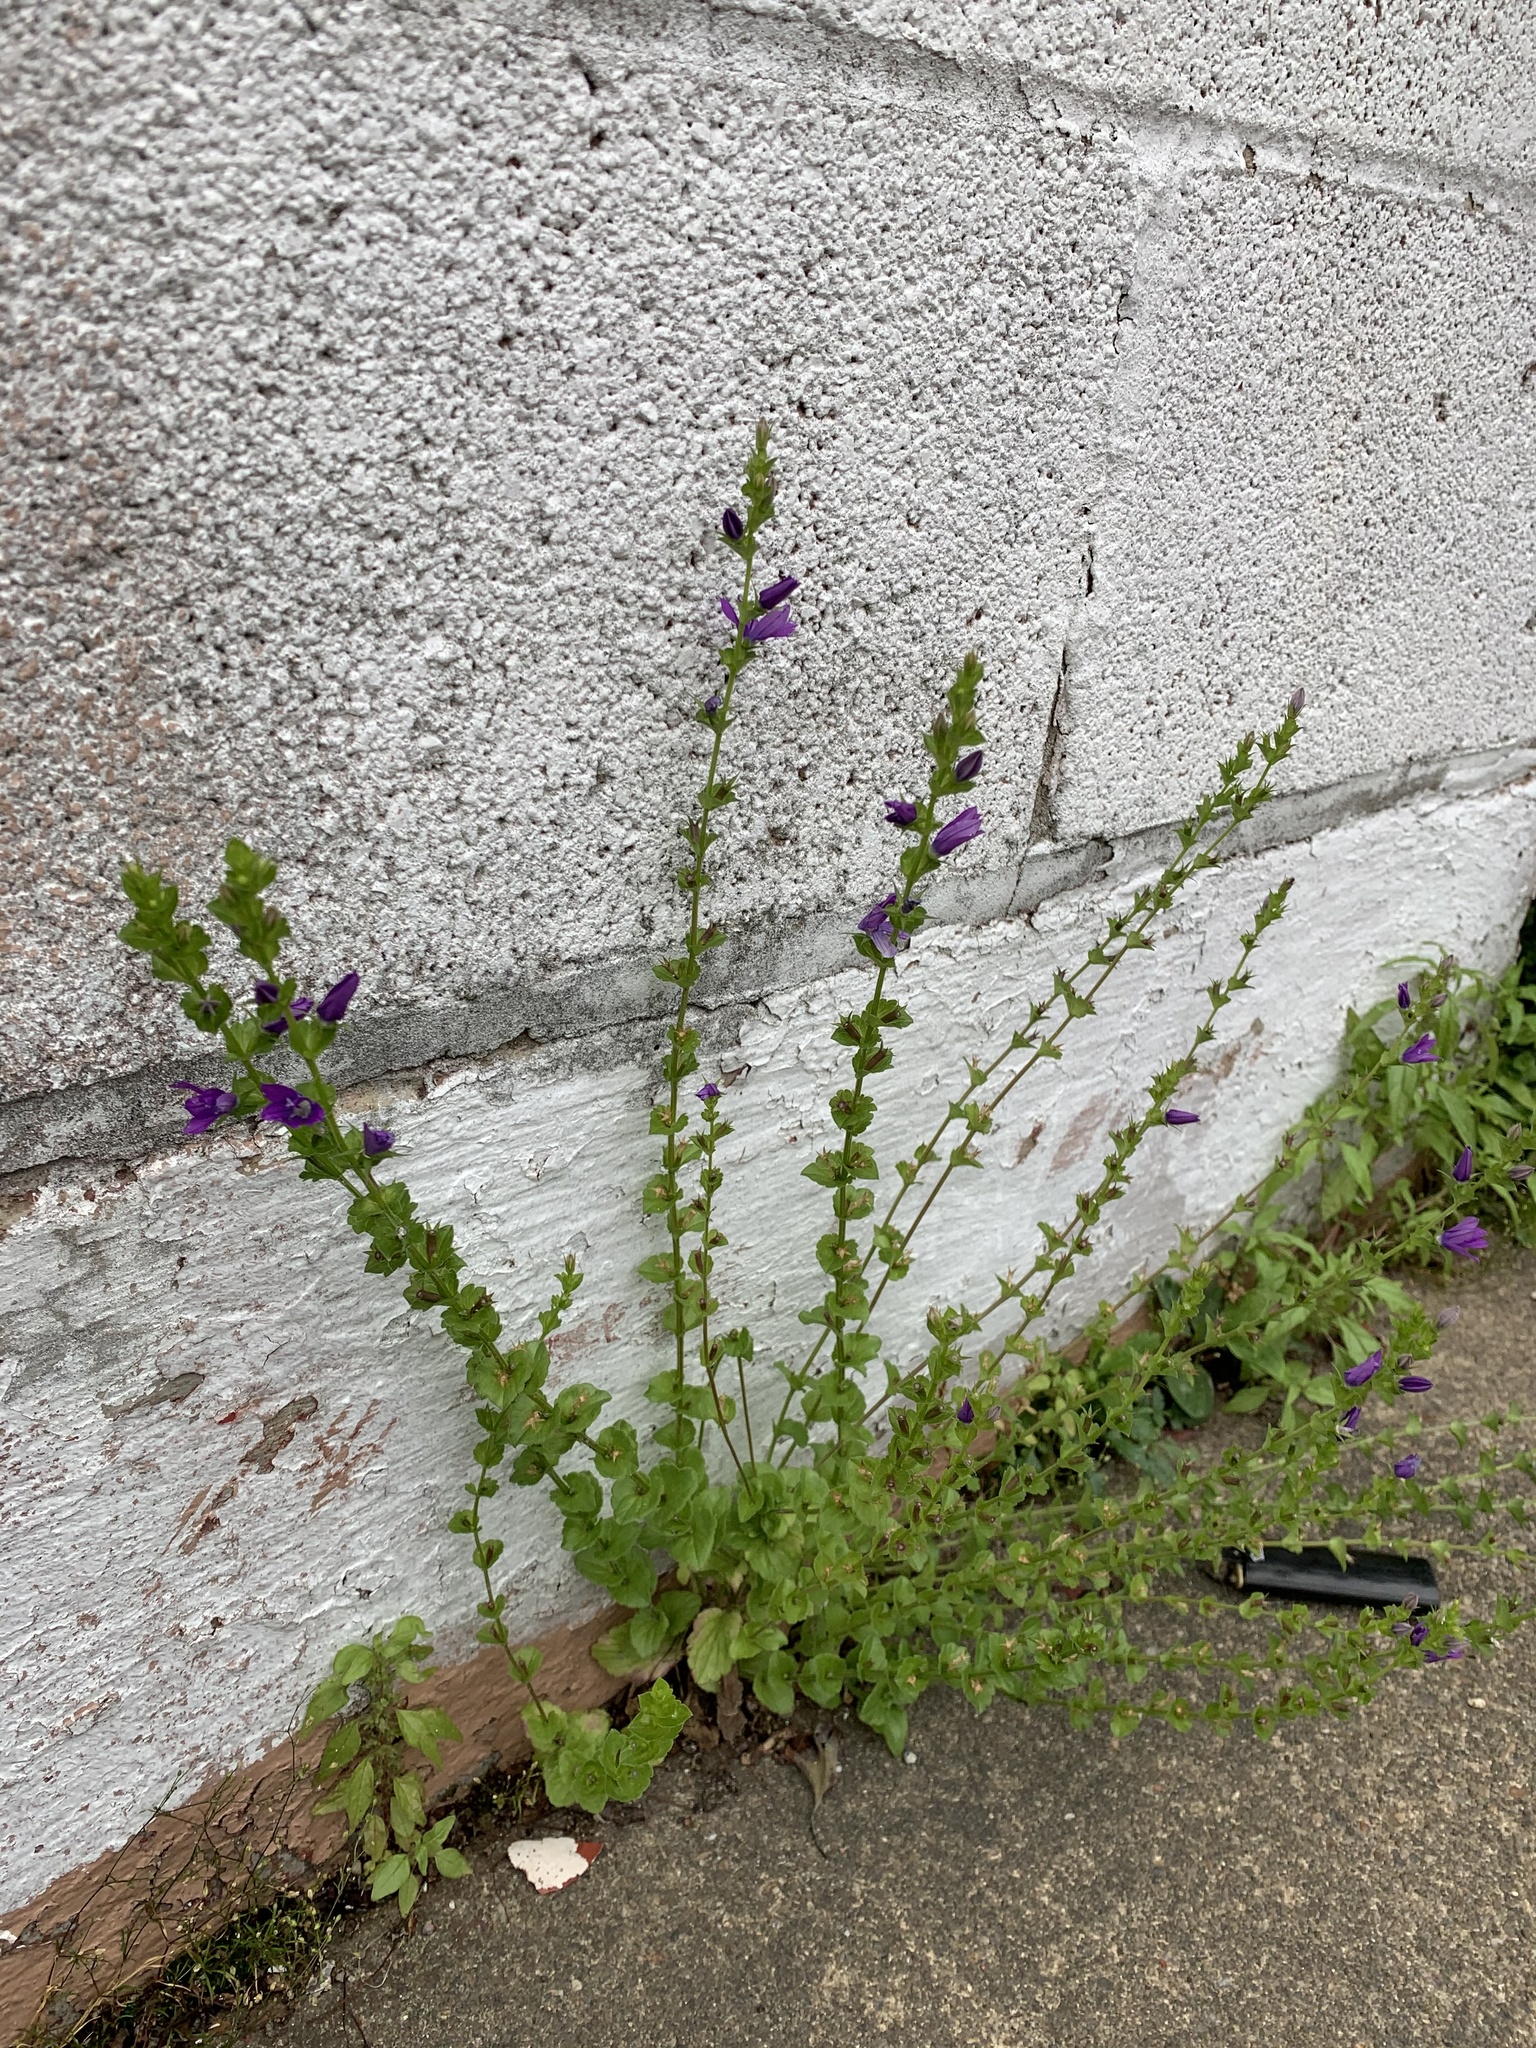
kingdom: Plantae
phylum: Tracheophyta
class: Magnoliopsida
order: Asterales
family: Campanulaceae
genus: Triodanis
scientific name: Triodanis perfoliata
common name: Clasping venus' looking-glass
